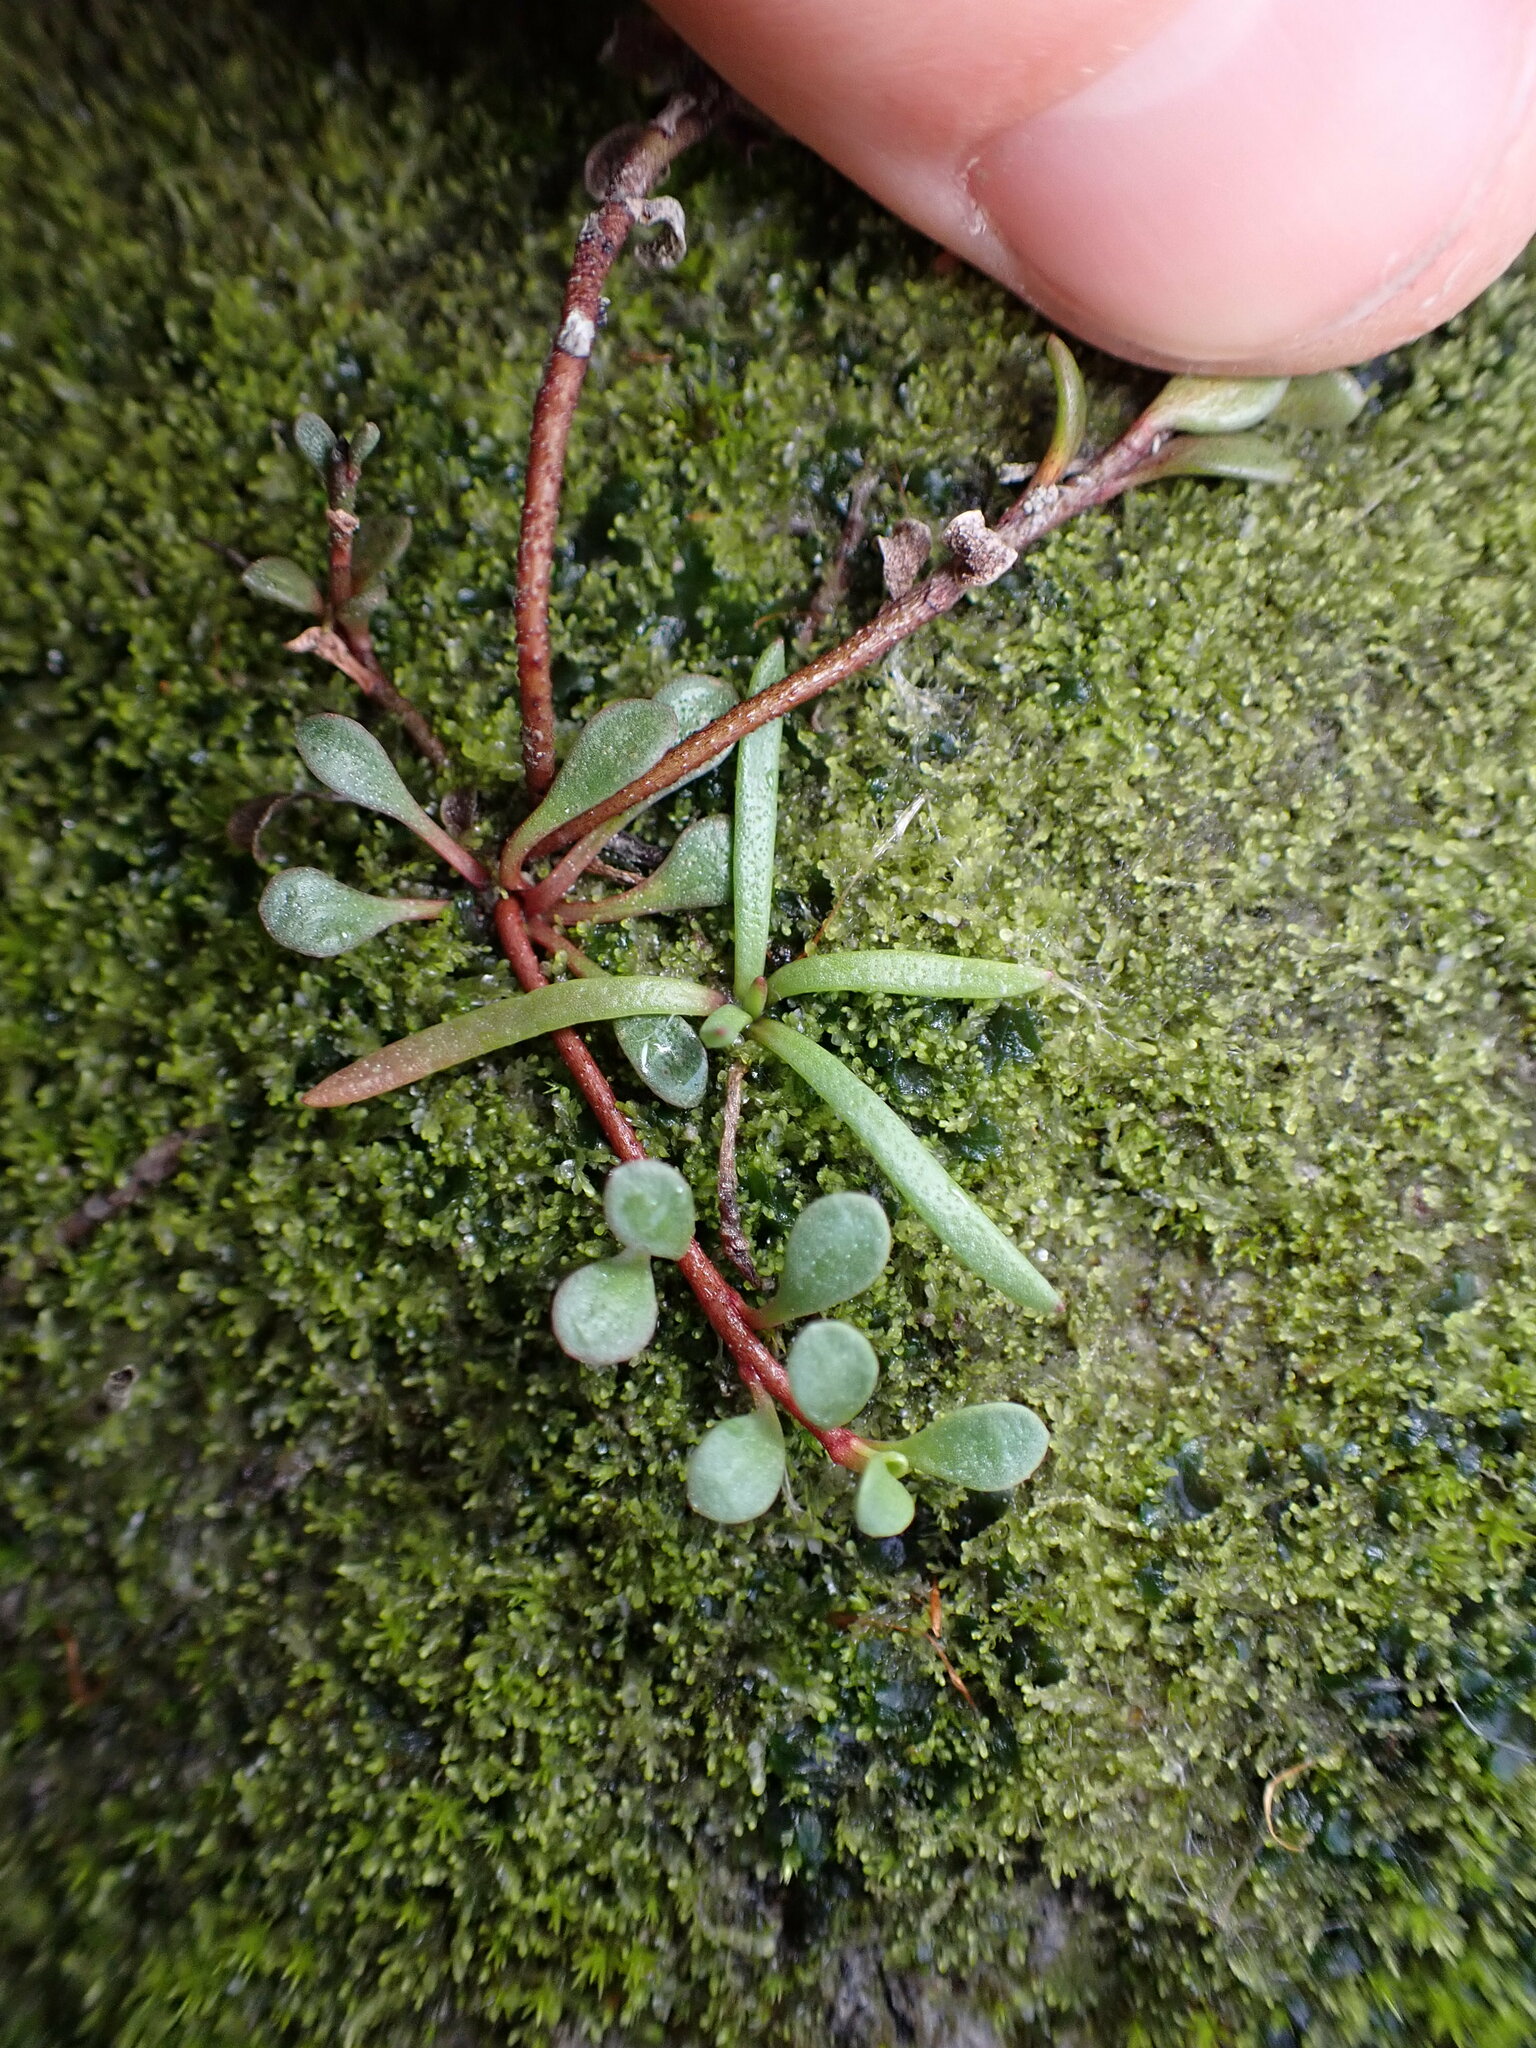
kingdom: Plantae
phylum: Tracheophyta
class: Magnoliopsida
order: Ericales
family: Primulaceae
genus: Samolus
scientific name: Samolus repens
